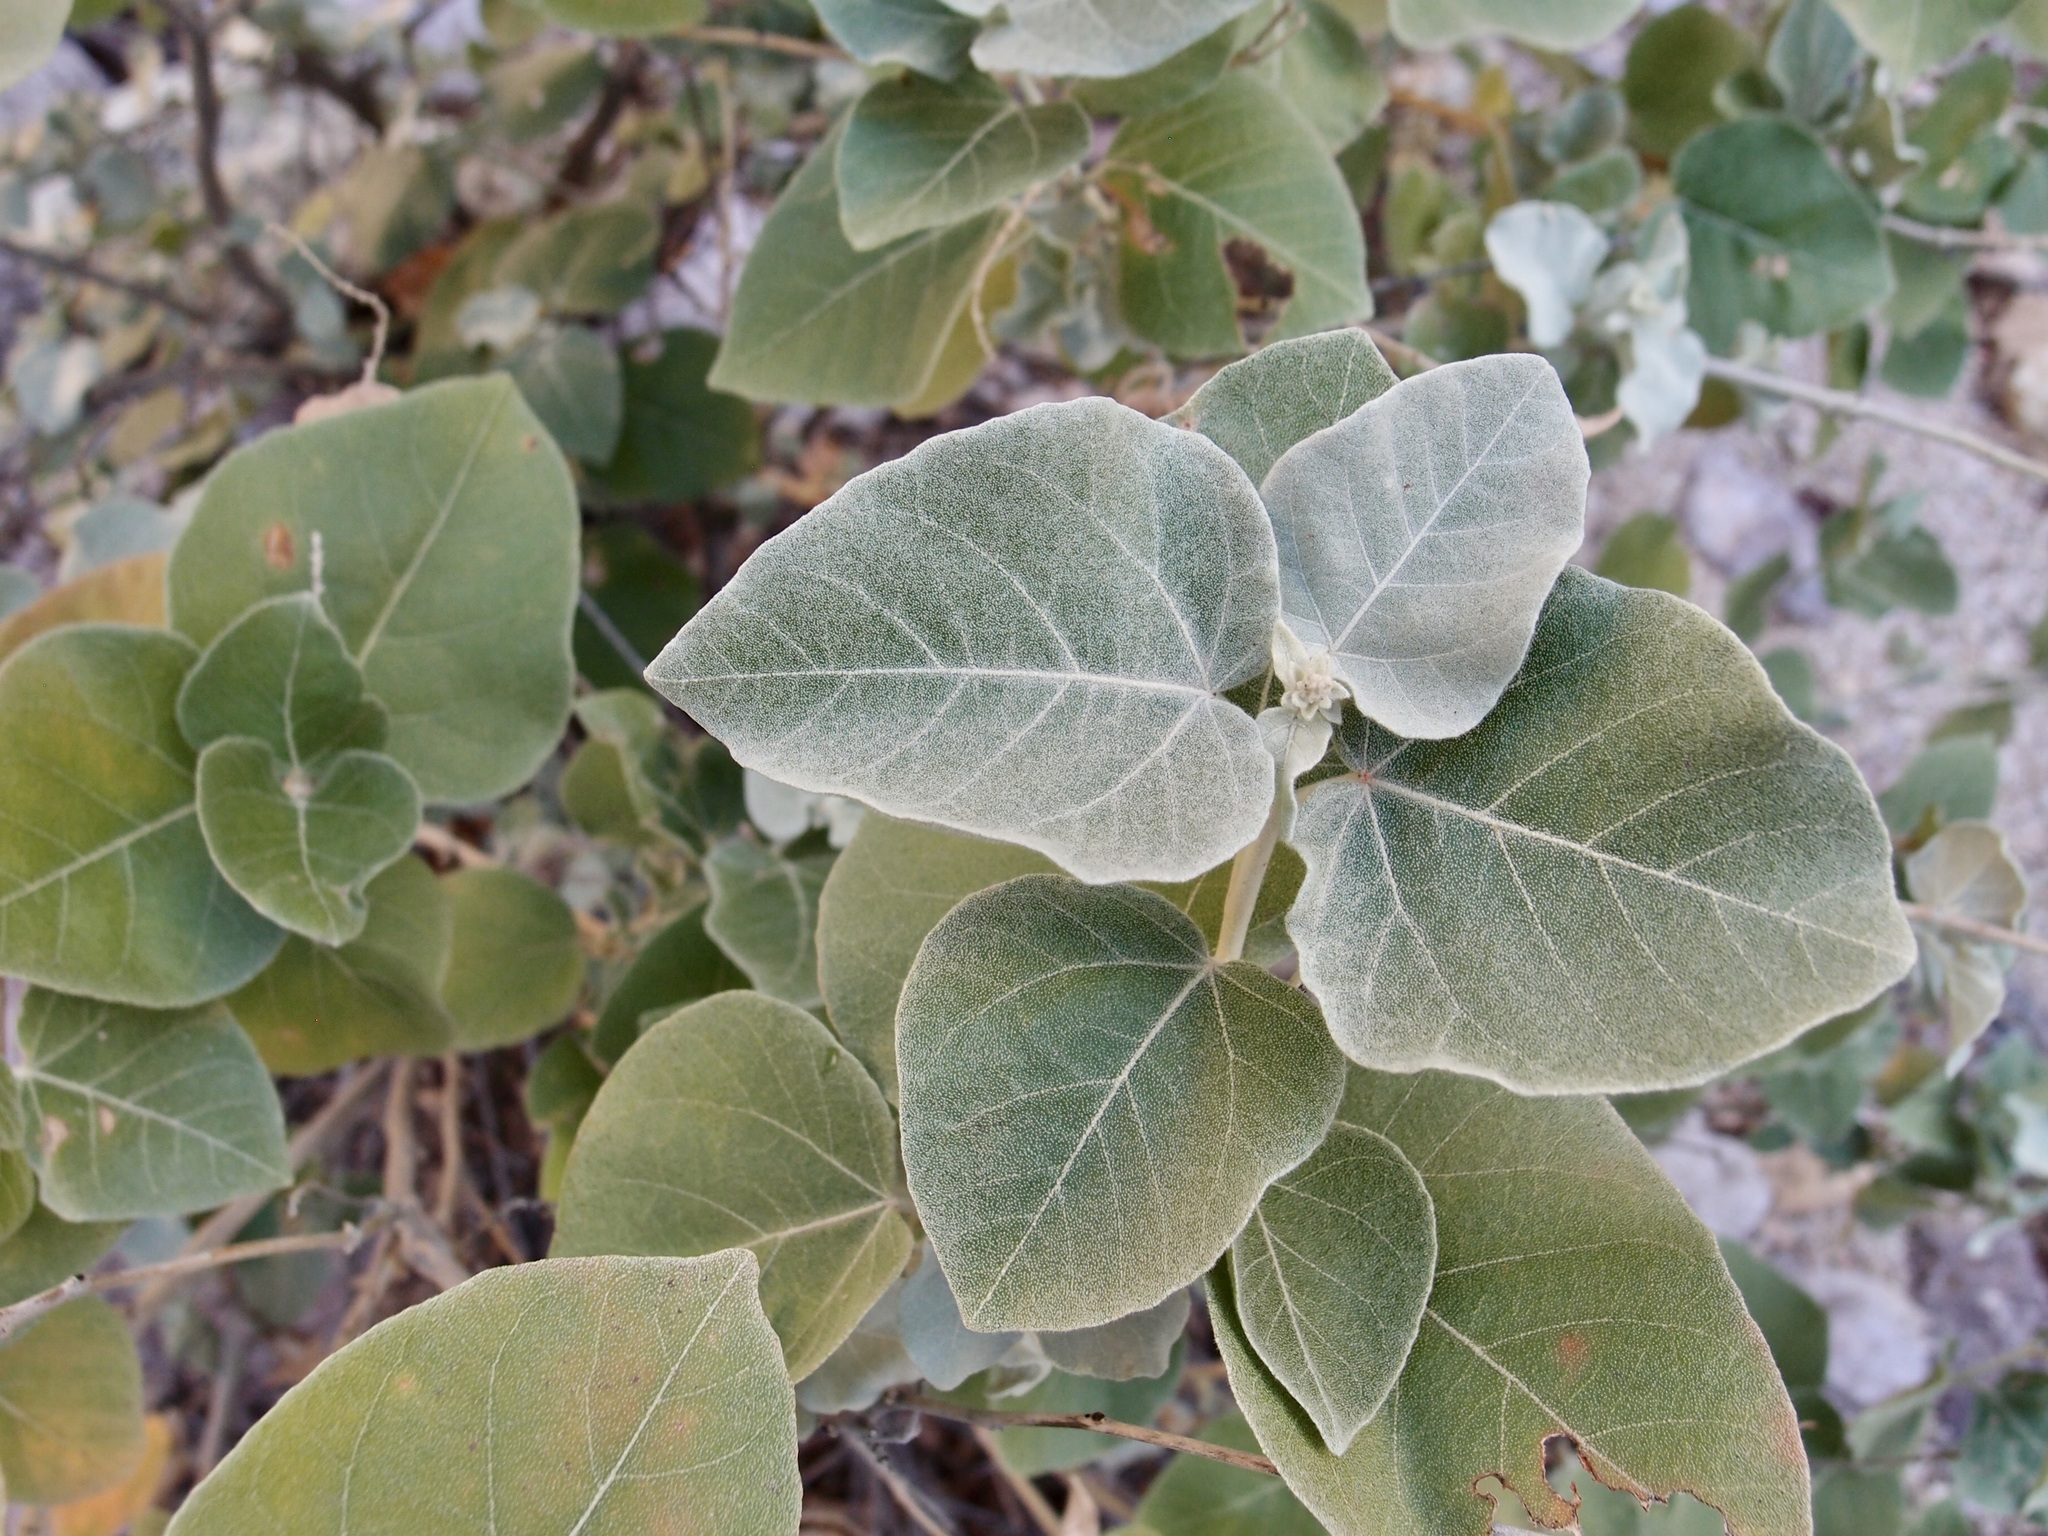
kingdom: Plantae
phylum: Tracheophyta
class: Magnoliopsida
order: Malpighiales
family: Euphorbiaceae
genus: Croton
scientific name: Croton magdalenae
